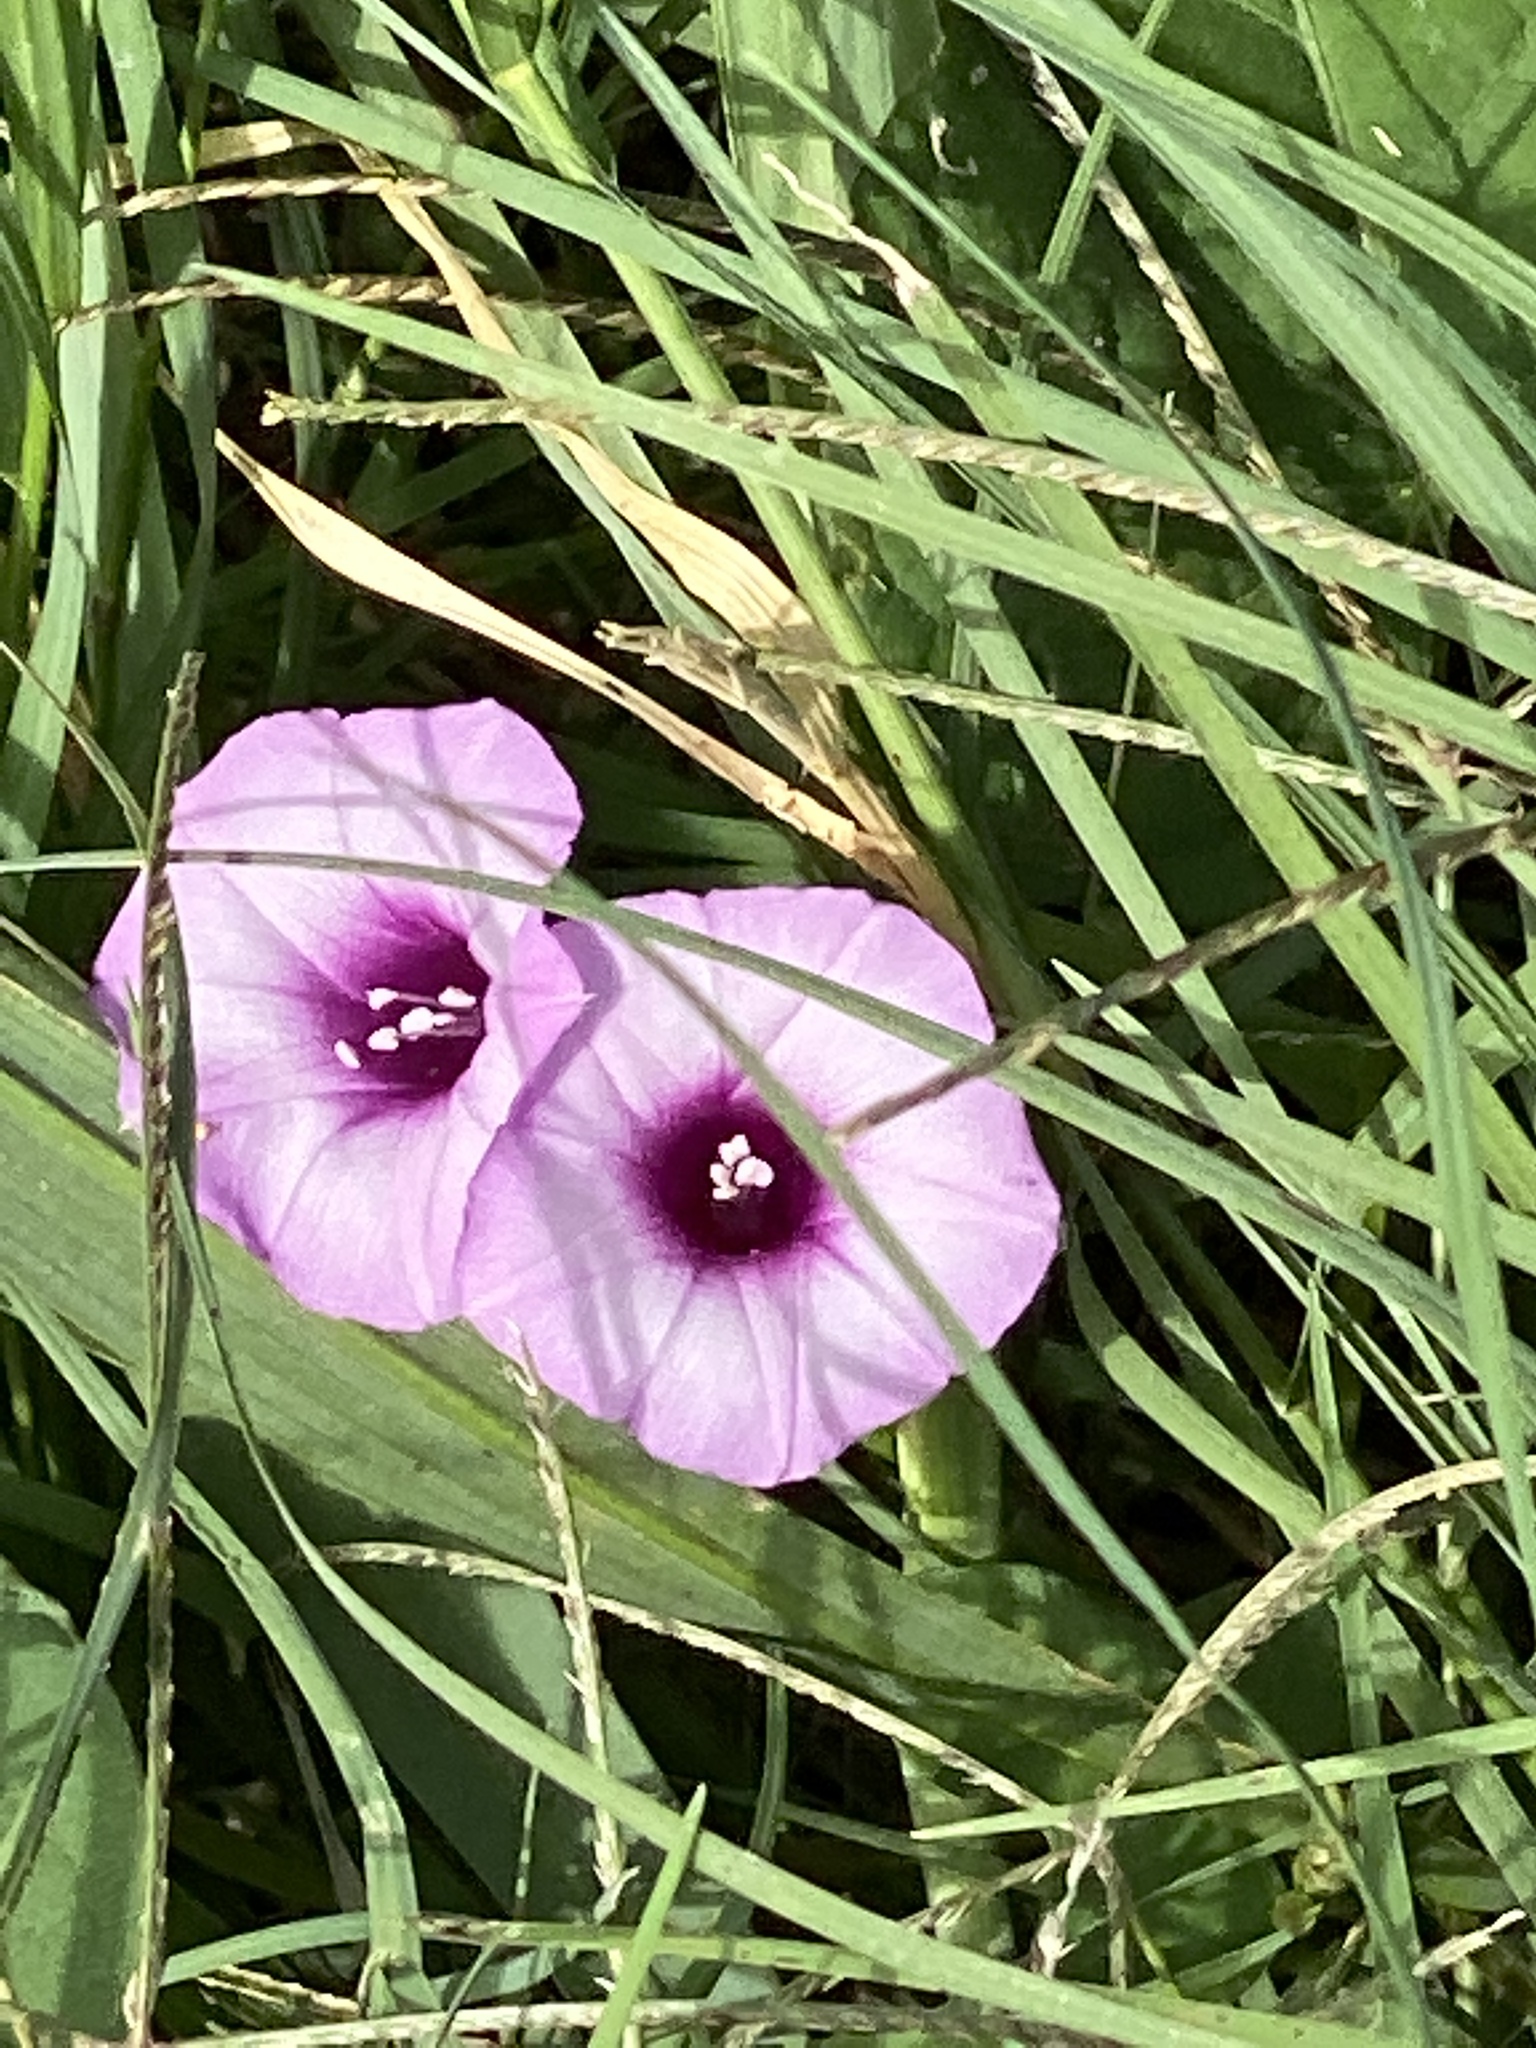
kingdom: Plantae
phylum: Tracheophyta
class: Magnoliopsida
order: Solanales
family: Convolvulaceae
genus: Ipomoea
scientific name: Ipomoea cordatotriloba
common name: Cotton morning glory
